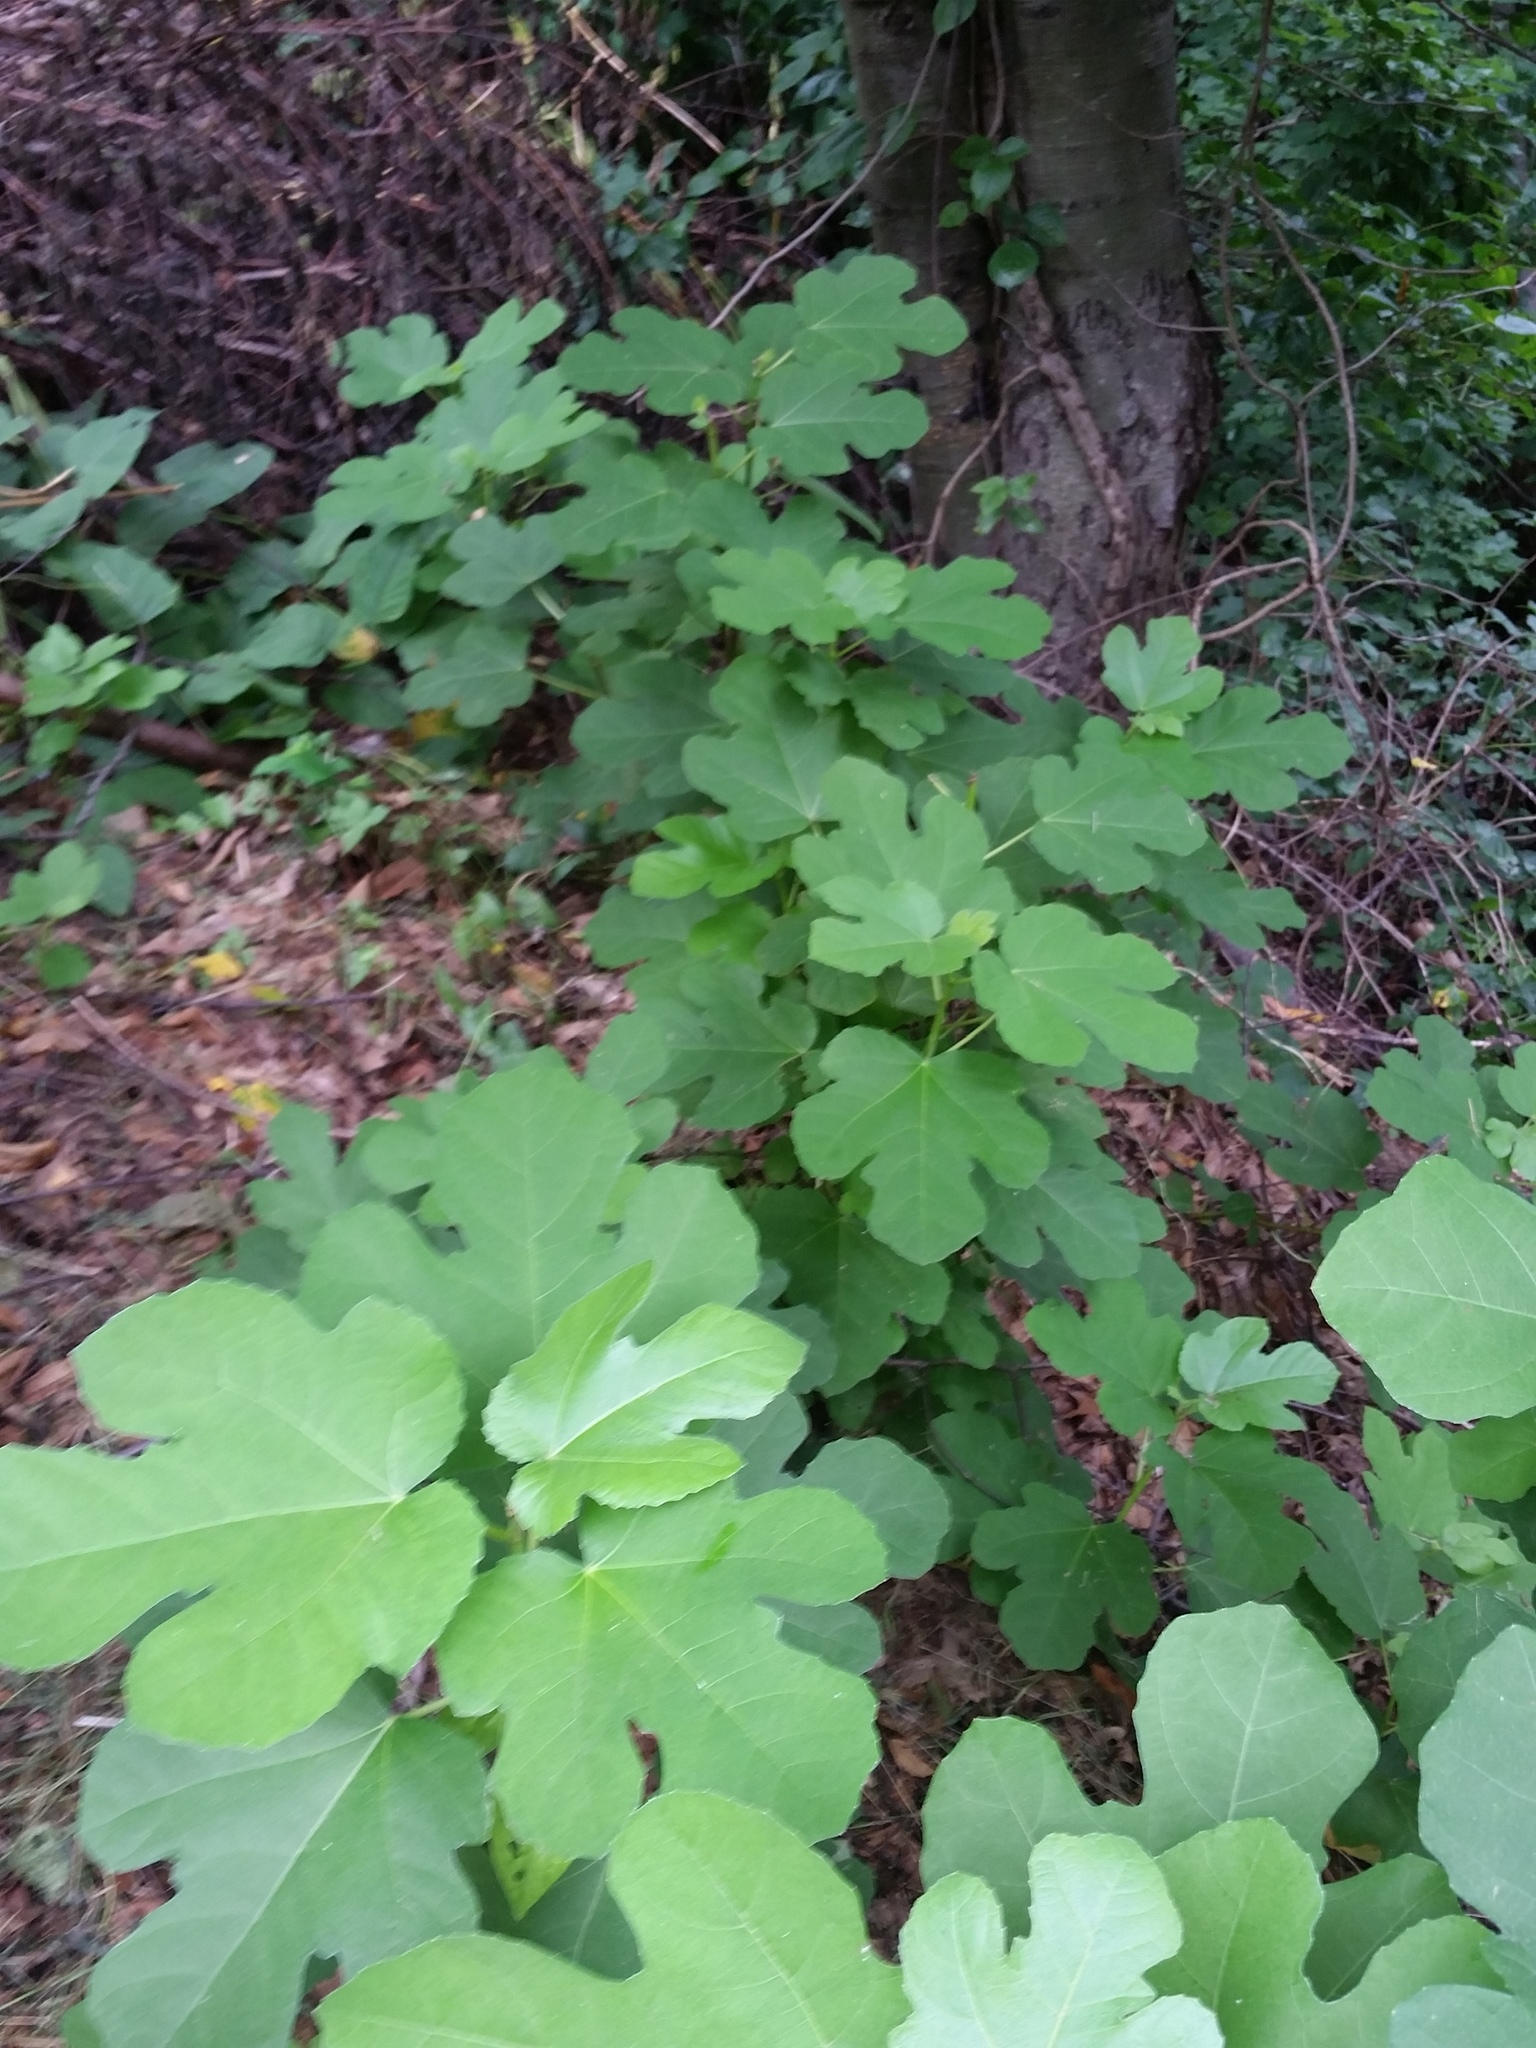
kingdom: Plantae
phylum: Tracheophyta
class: Magnoliopsida
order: Rosales
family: Moraceae
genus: Ficus
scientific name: Ficus carica
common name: Fig
